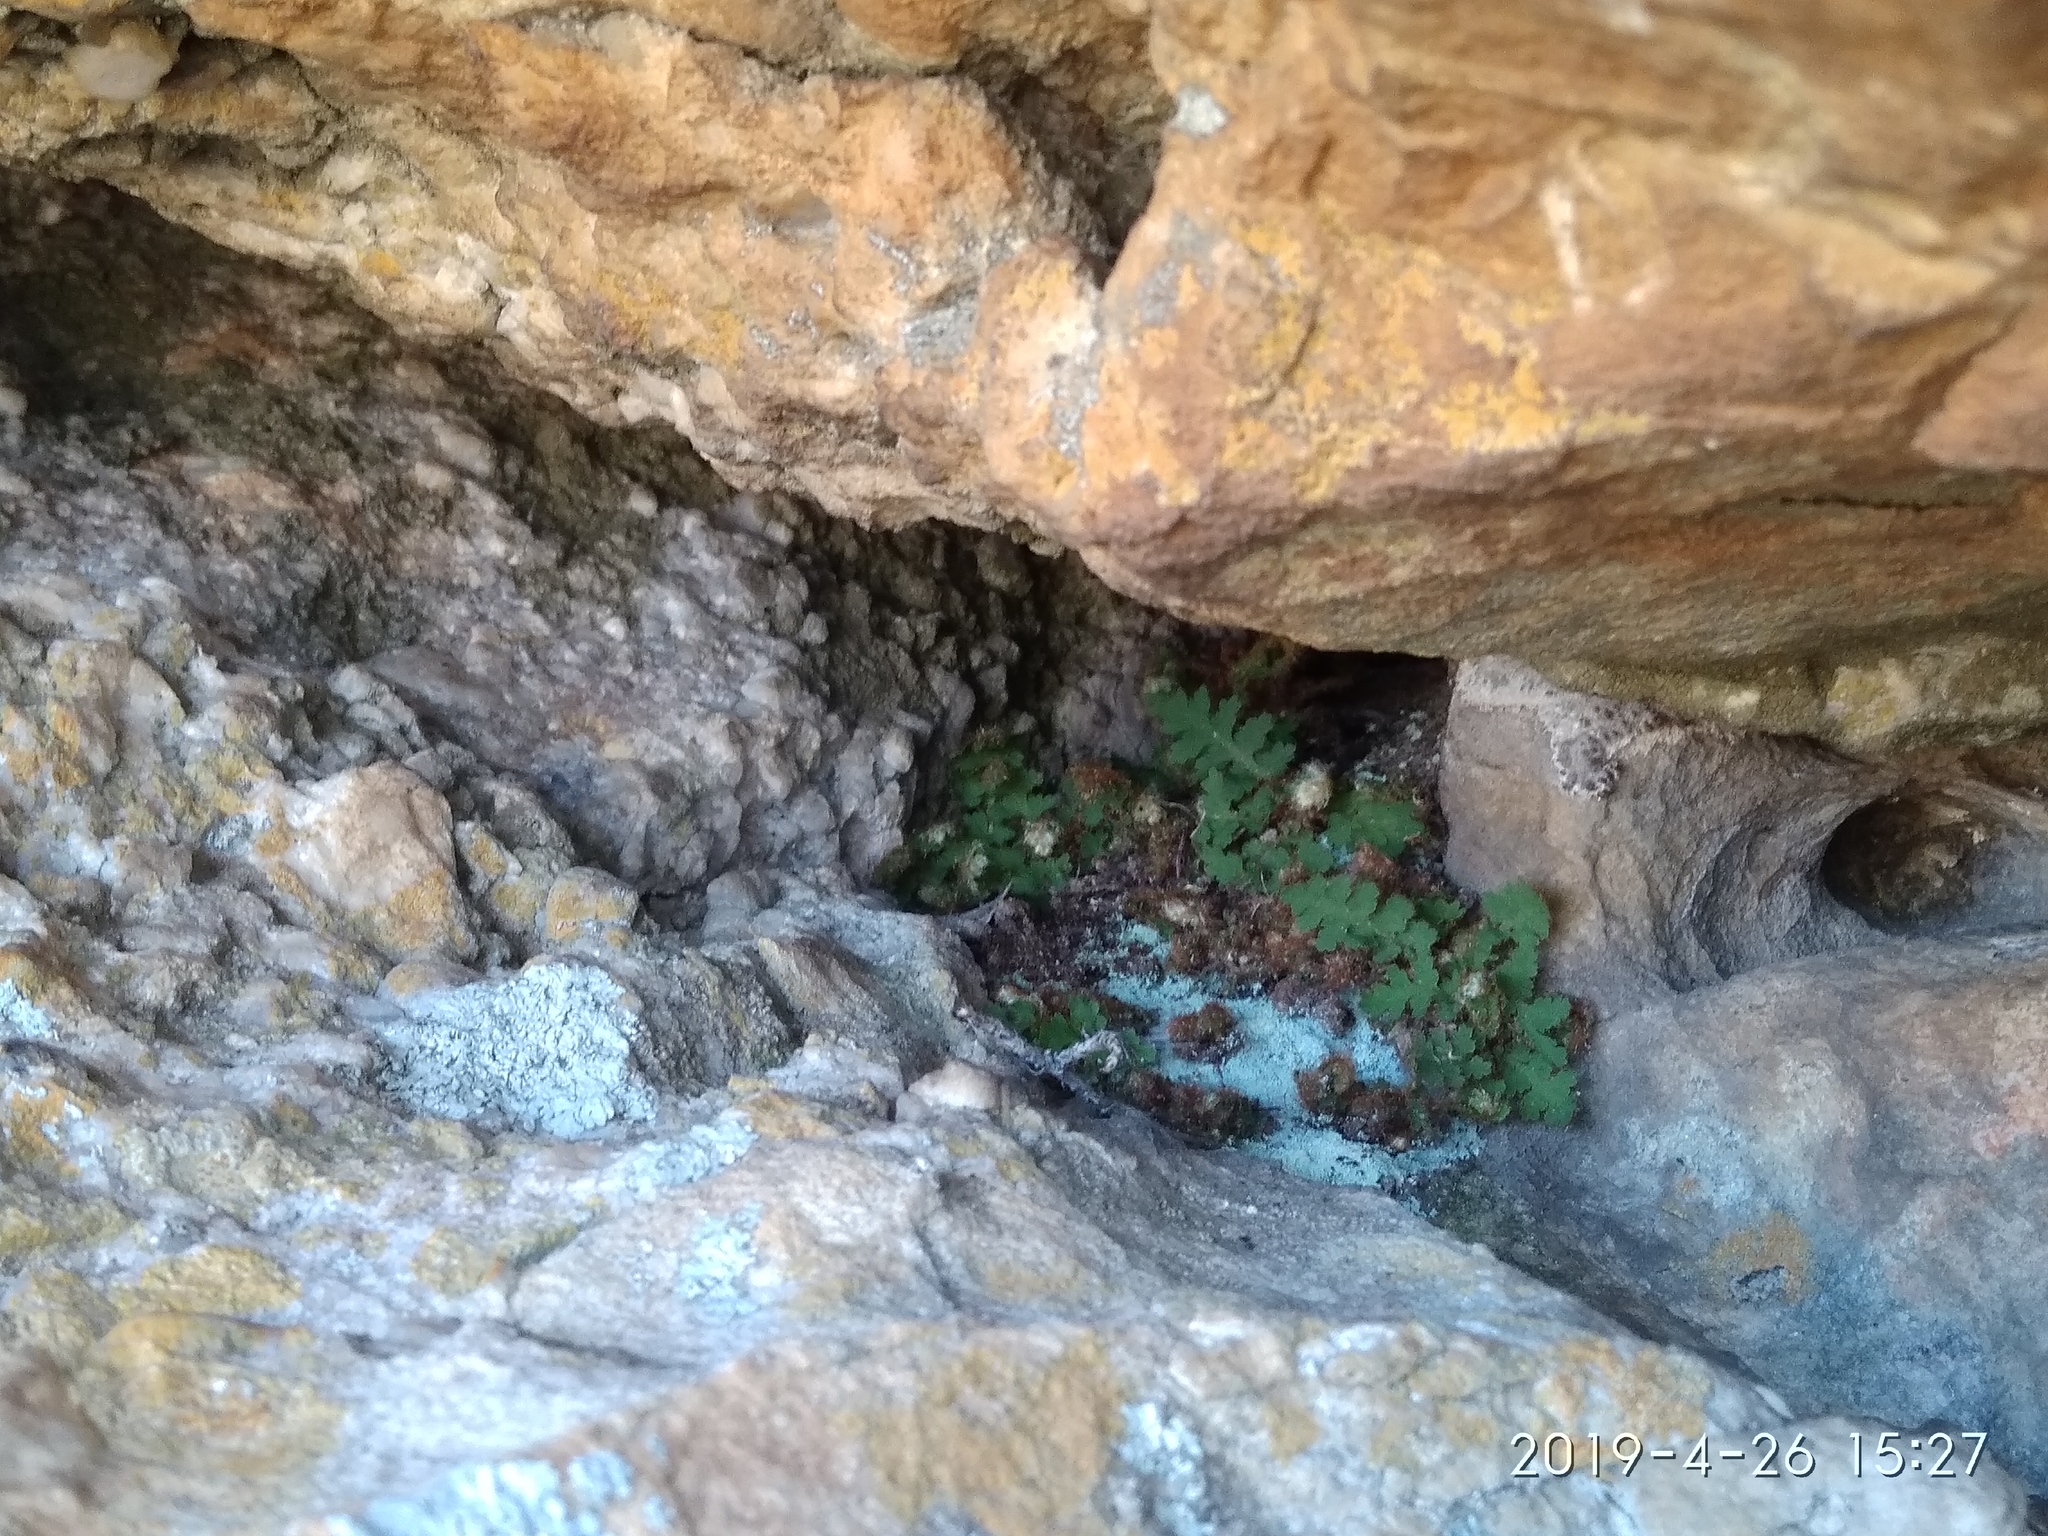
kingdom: Plantae
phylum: Tracheophyta
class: Polypodiopsida
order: Polypodiales
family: Aspleniaceae
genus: Asplenium
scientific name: Asplenium capense
